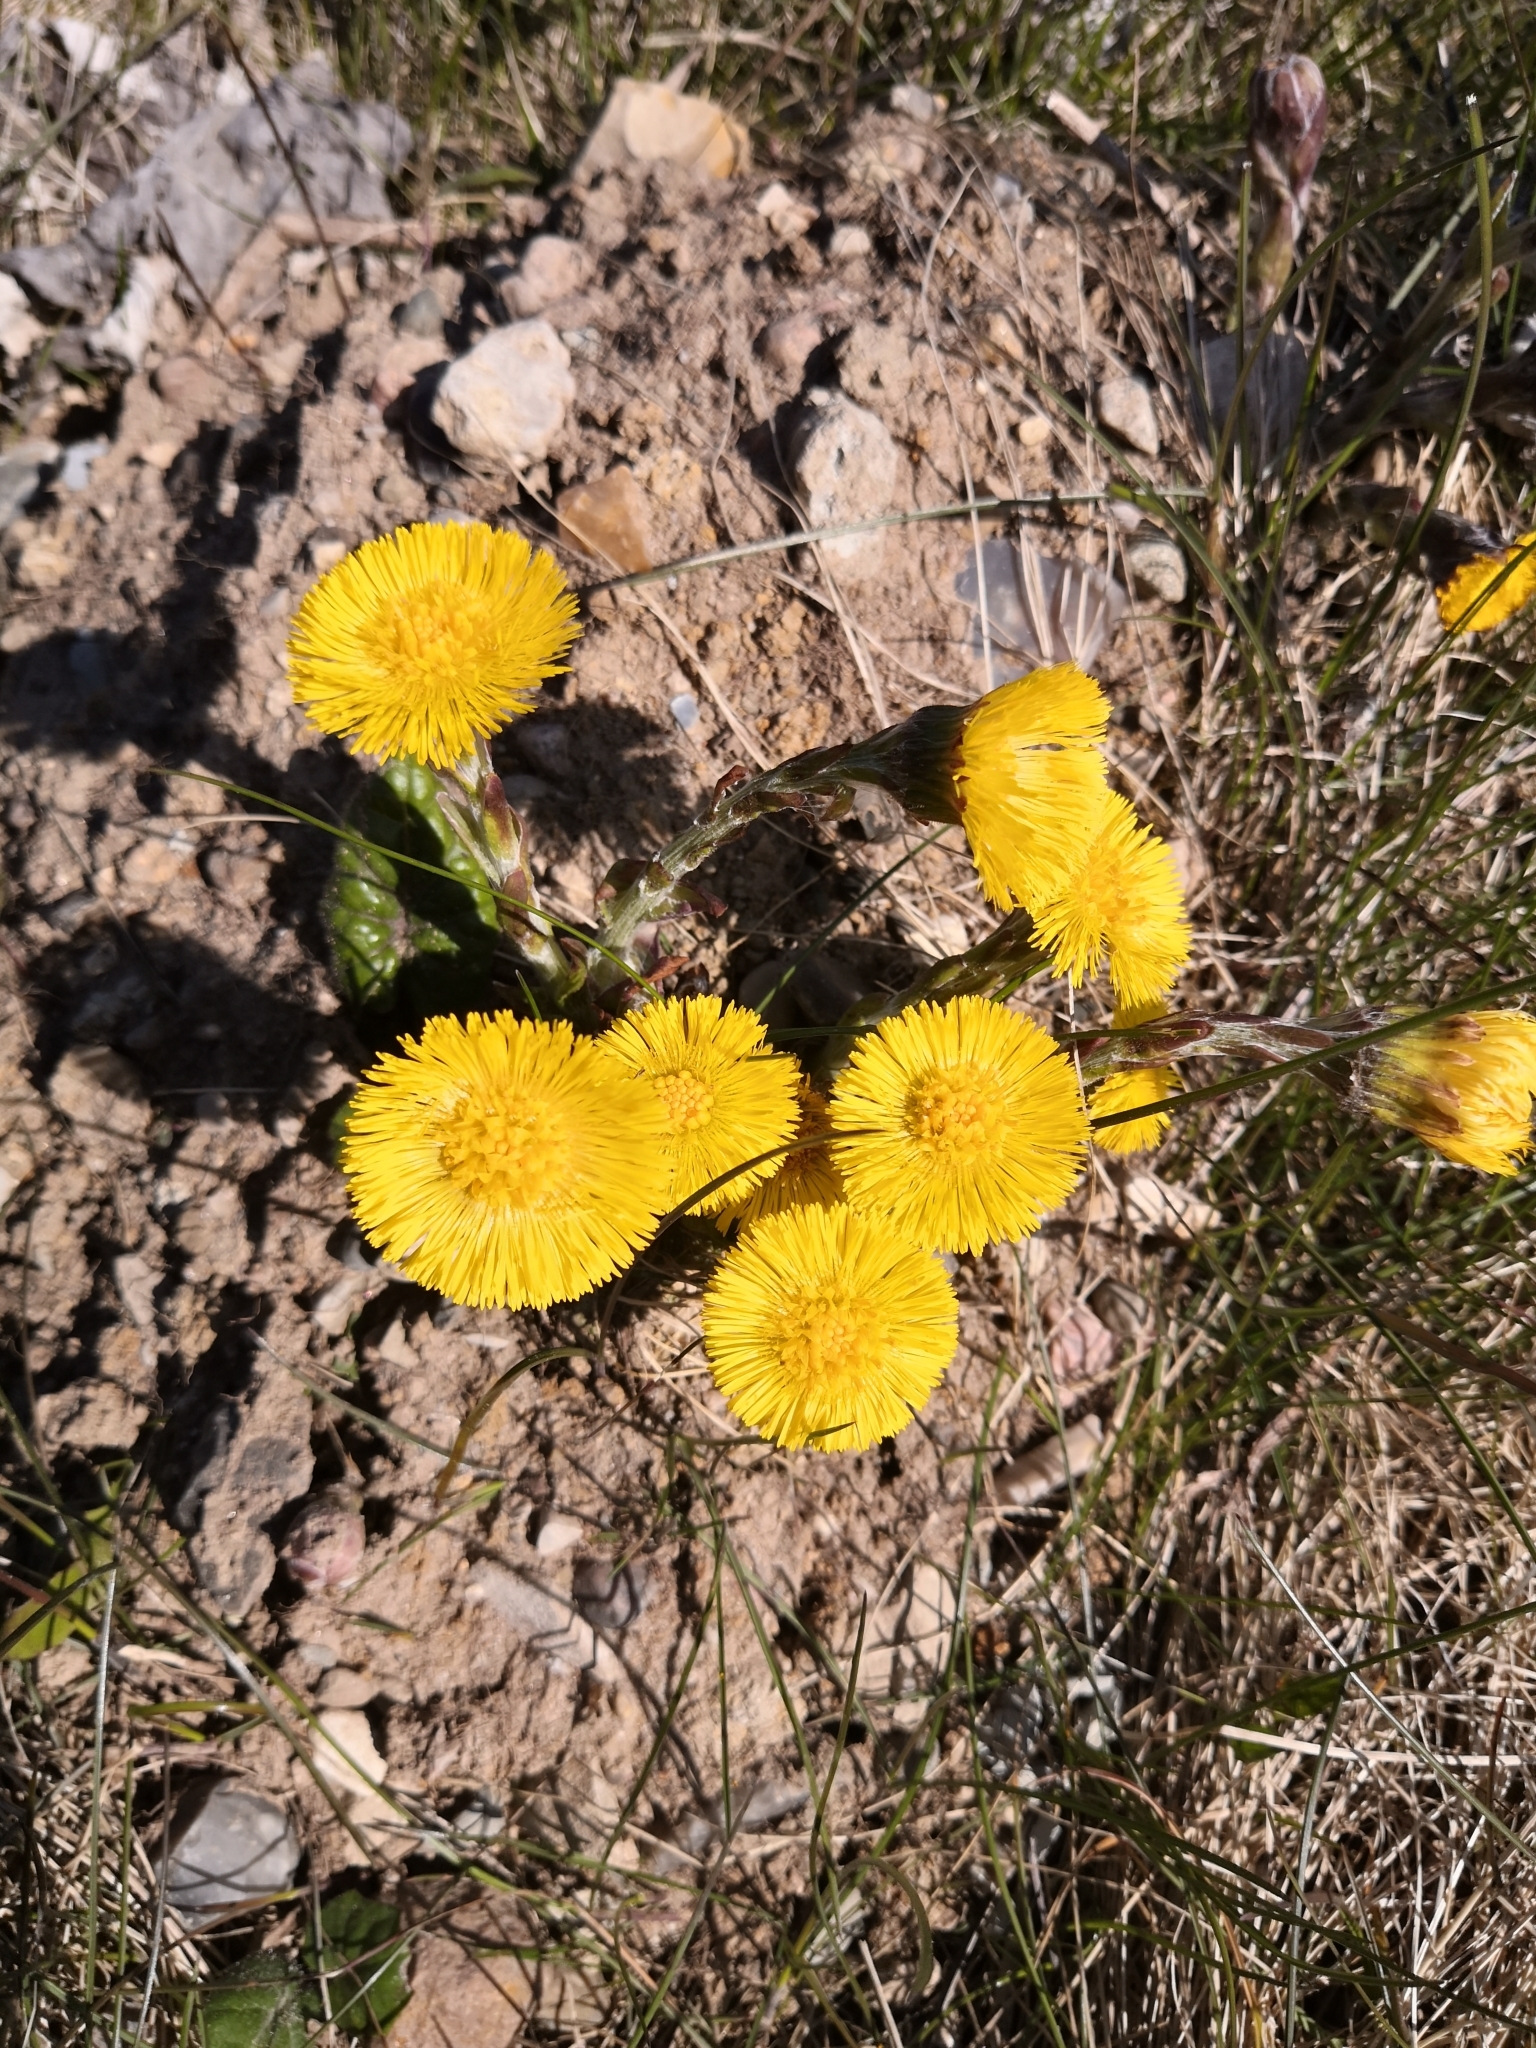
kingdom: Plantae
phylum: Tracheophyta
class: Magnoliopsida
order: Asterales
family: Asteraceae
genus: Tussilago
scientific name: Tussilago farfara
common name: Coltsfoot
